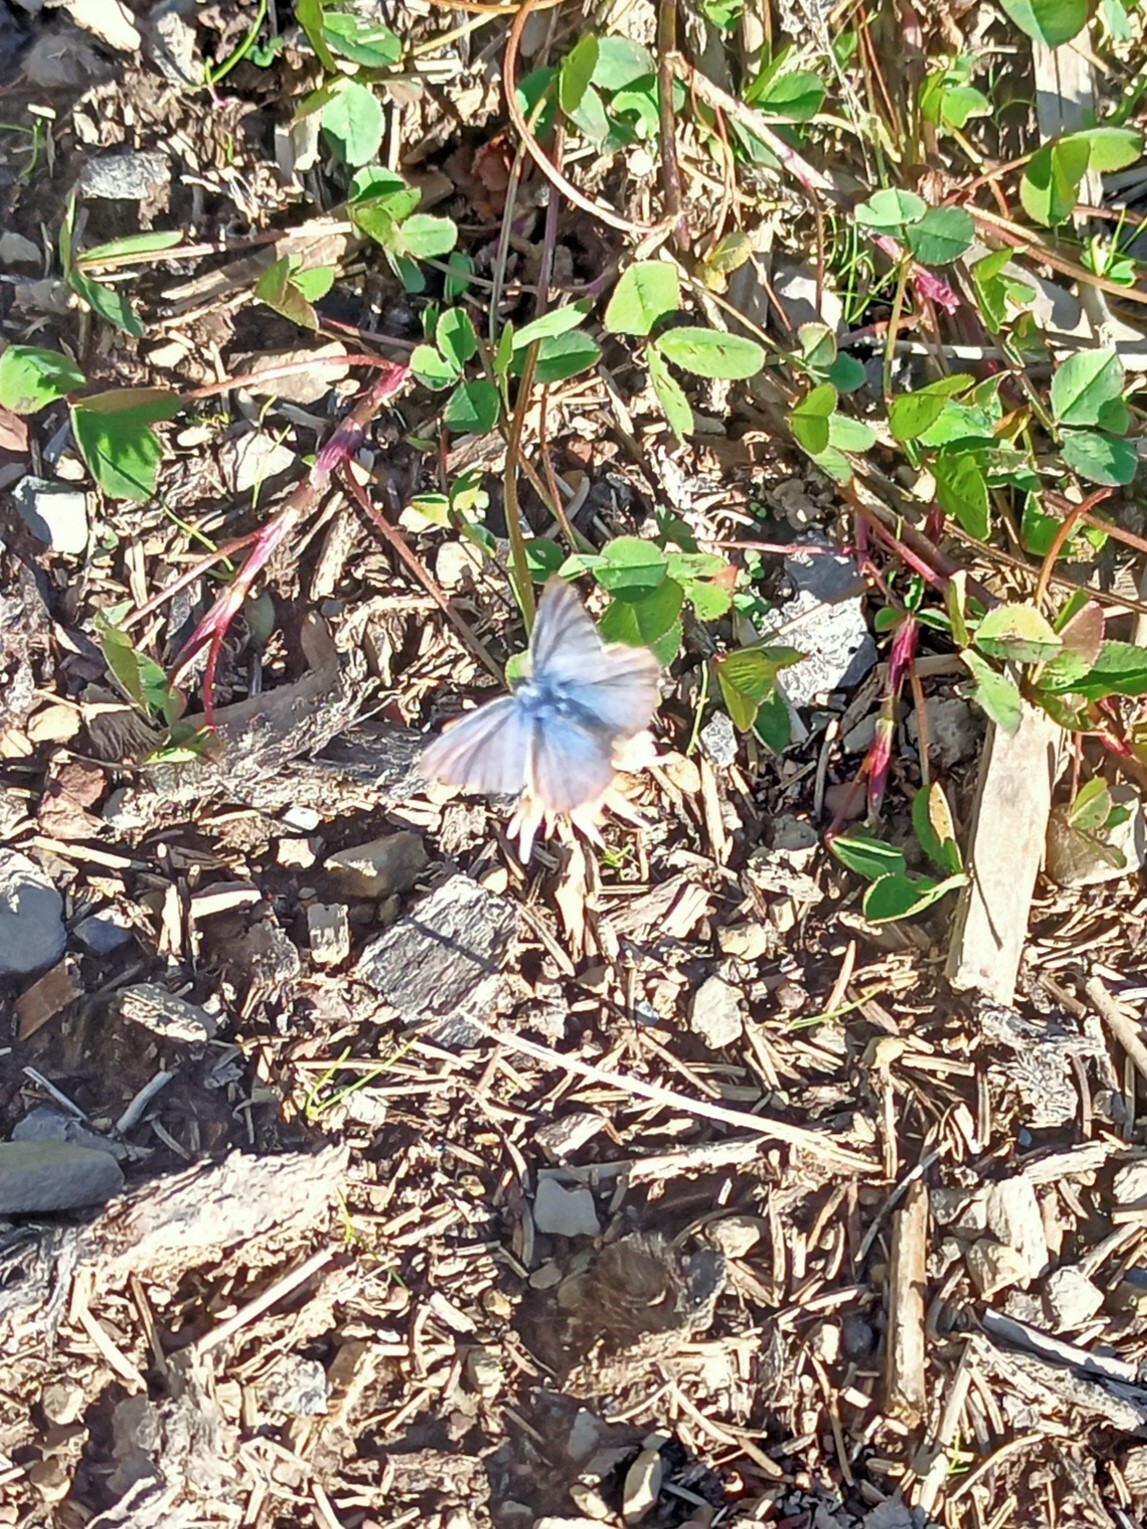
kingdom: Animalia
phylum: Arthropoda
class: Insecta
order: Lepidoptera
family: Lycaenidae
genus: Polyommatus
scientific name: Polyommatus icarus
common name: Common blue
